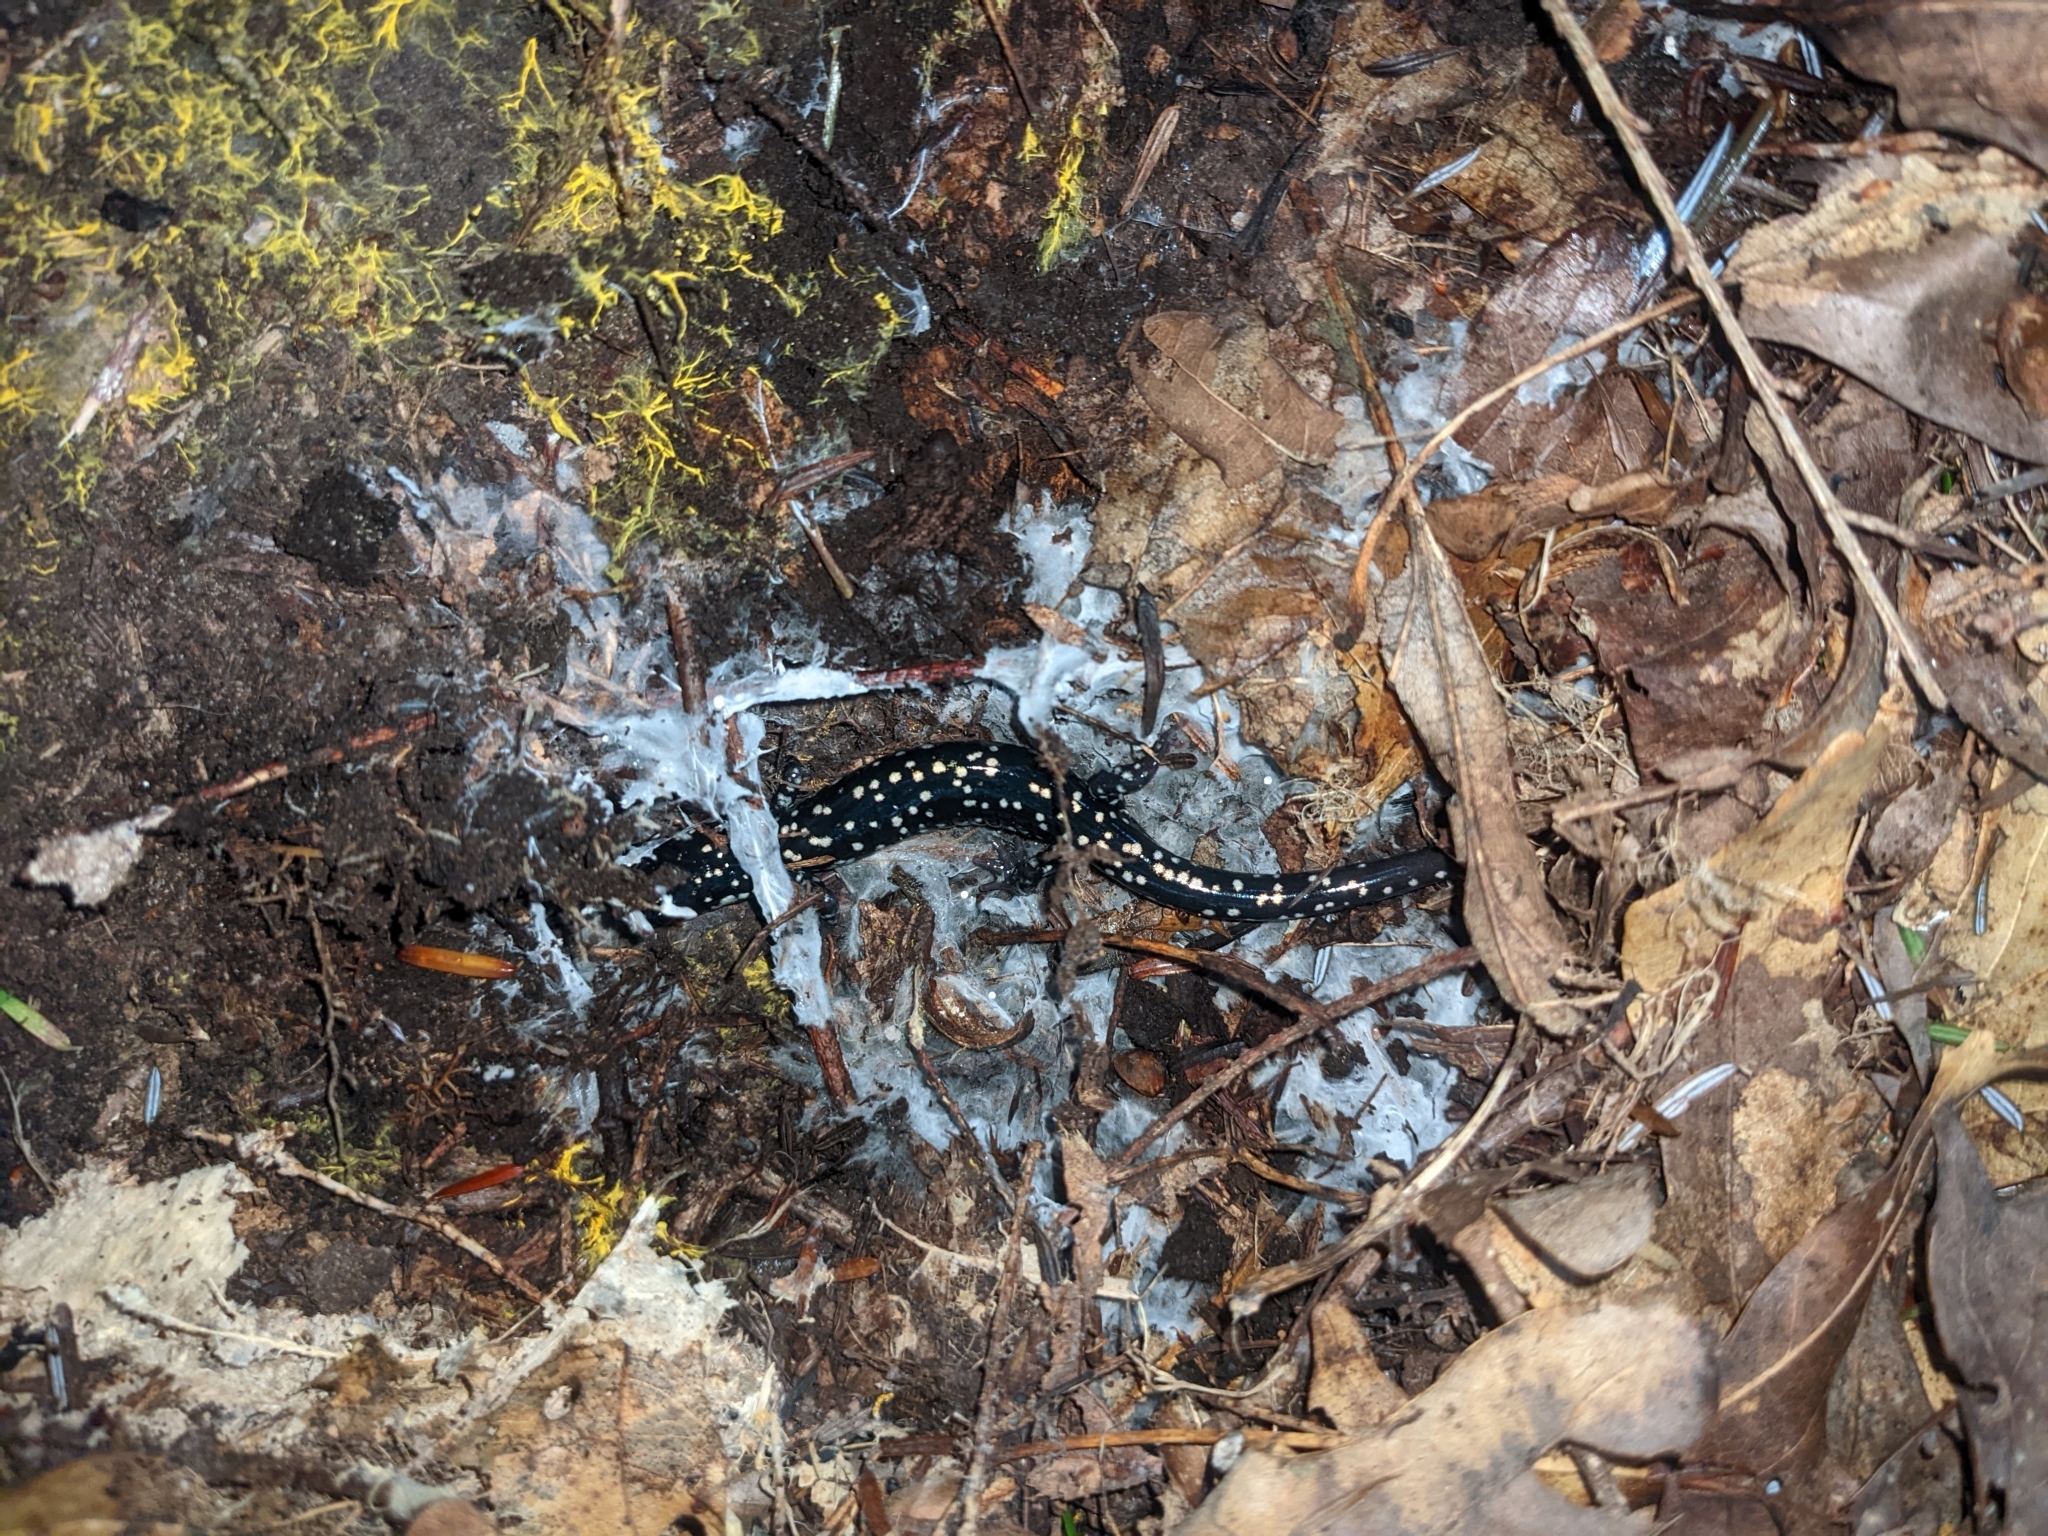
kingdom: Animalia
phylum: Chordata
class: Amphibia
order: Caudata
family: Plethodontidae
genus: Plethodon
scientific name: Plethodon glutinosus
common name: Northern slimy salamander
